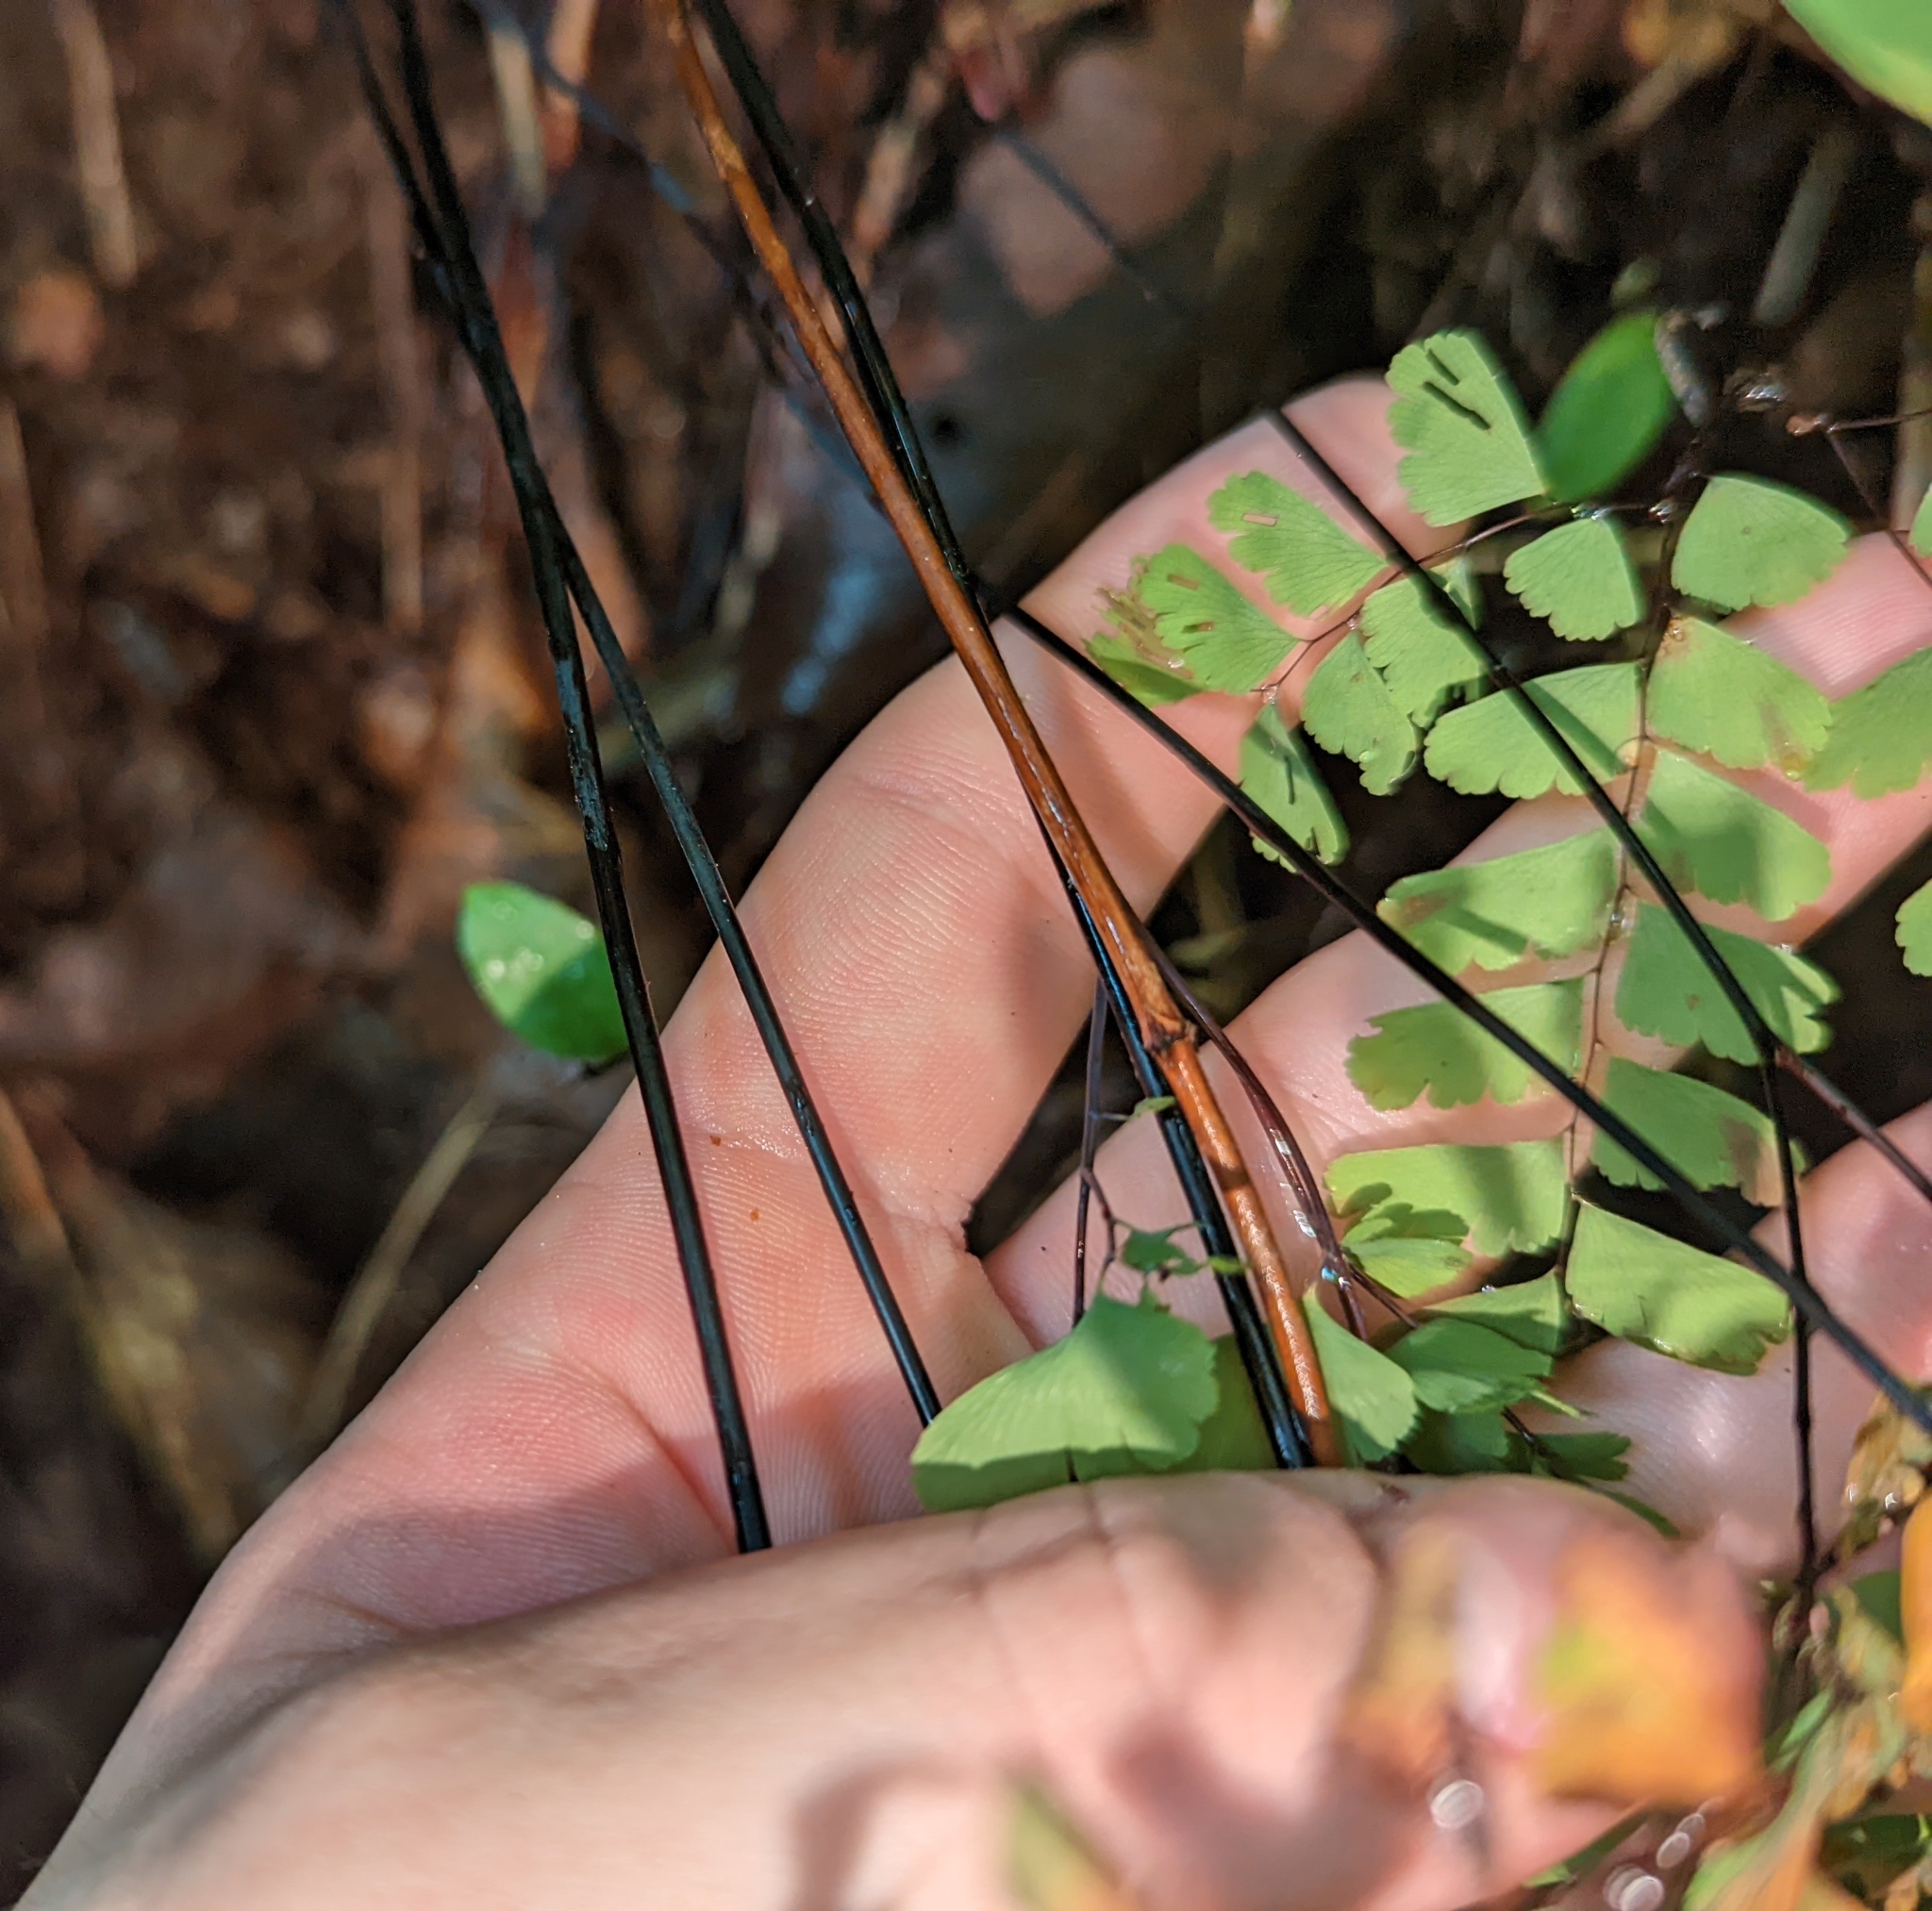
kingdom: Plantae
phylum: Tracheophyta
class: Polypodiopsida
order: Polypodiales
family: Pteridaceae
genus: Adiantum
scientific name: Adiantum pedatum
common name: Five-finger fern
